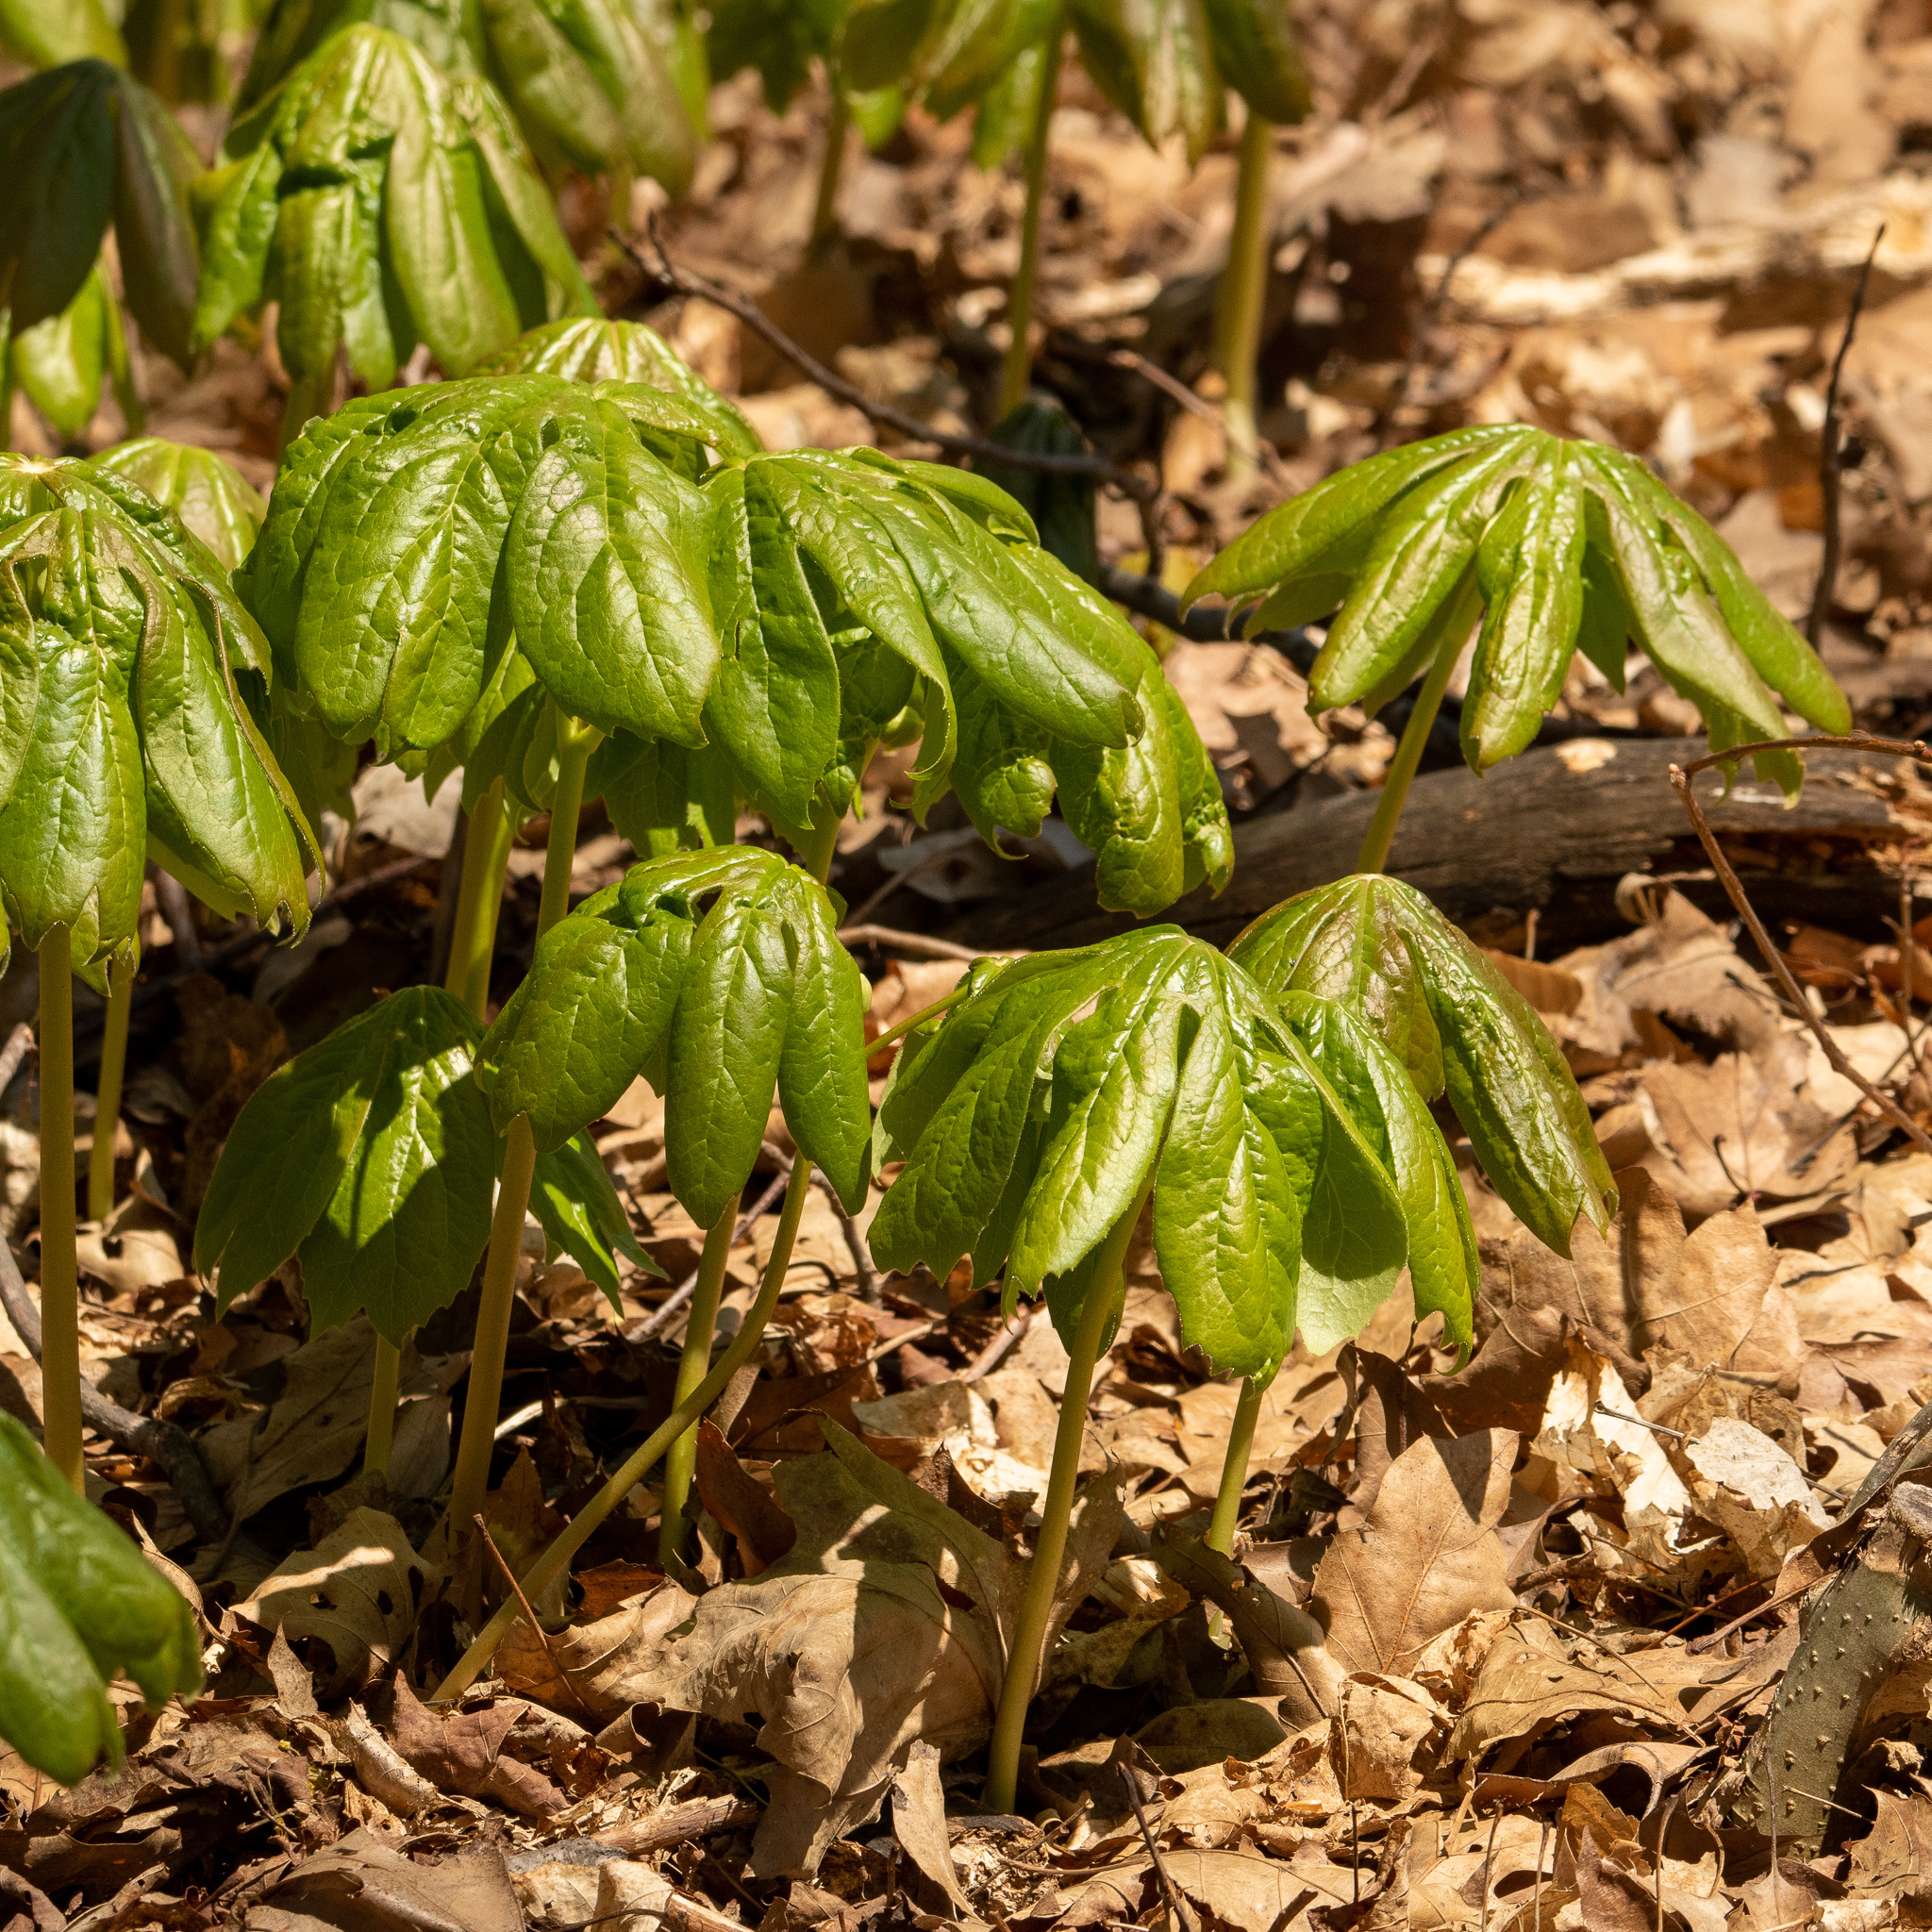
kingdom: Plantae
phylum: Tracheophyta
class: Magnoliopsida
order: Ranunculales
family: Berberidaceae
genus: Podophyllum
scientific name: Podophyllum peltatum
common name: Wild mandrake
